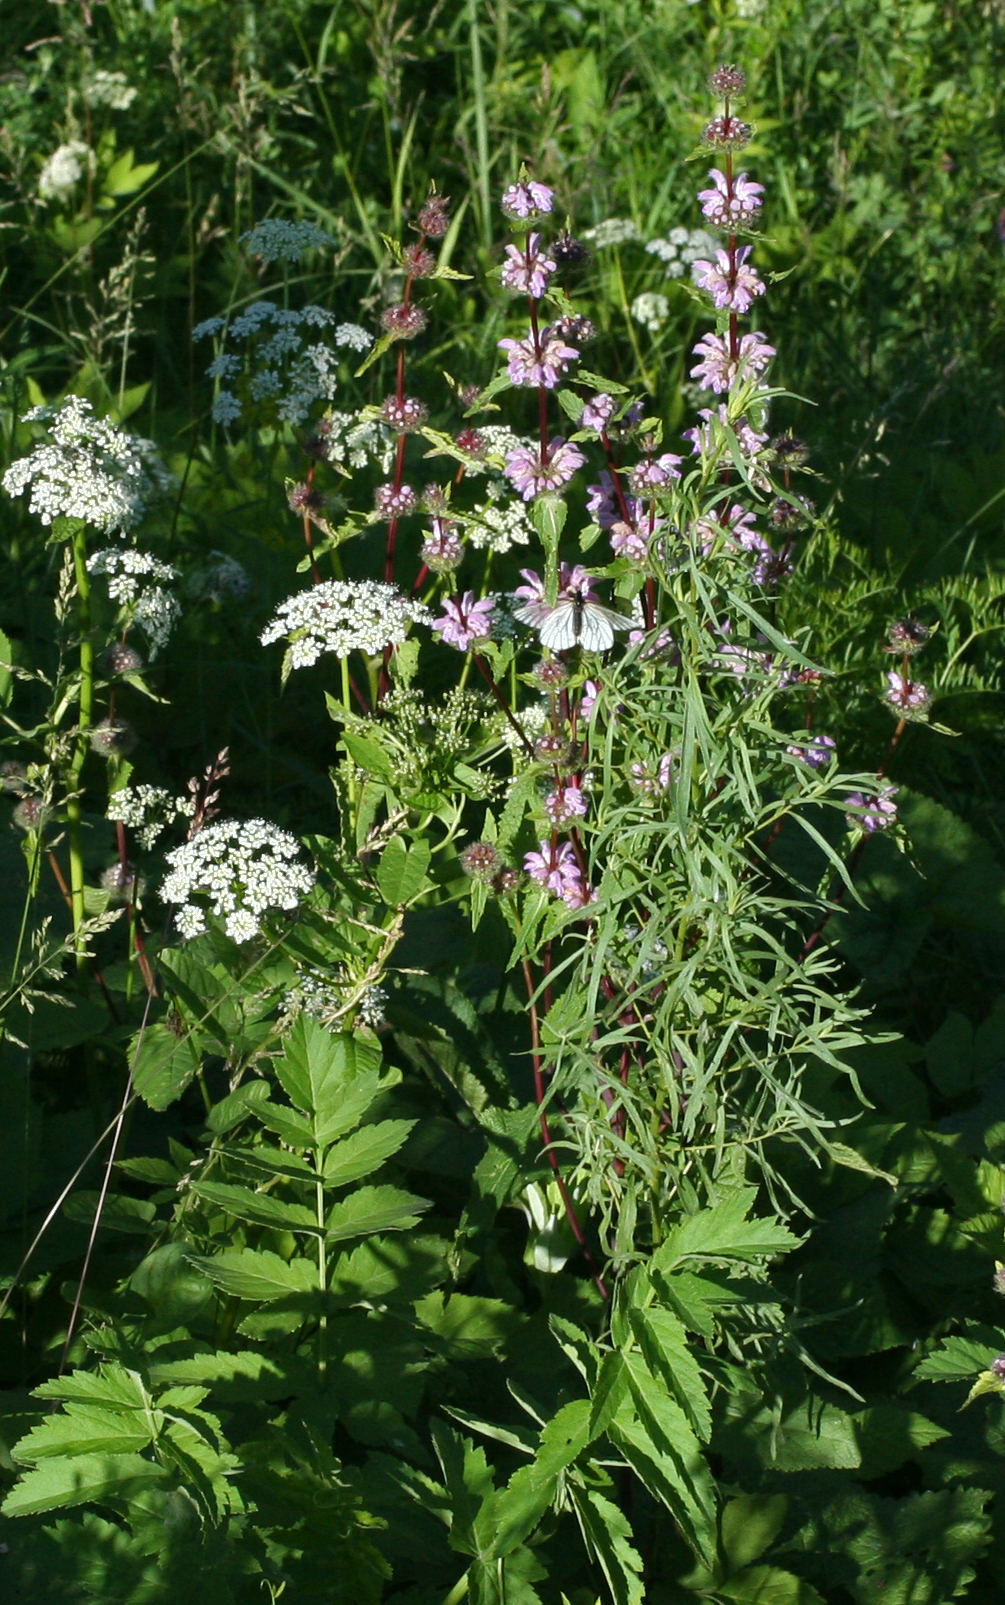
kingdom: Plantae
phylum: Tracheophyta
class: Magnoliopsida
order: Lamiales
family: Lamiaceae
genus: Phlomoides
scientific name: Phlomoides tuberosa
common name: Tuberous jerusalem sage
